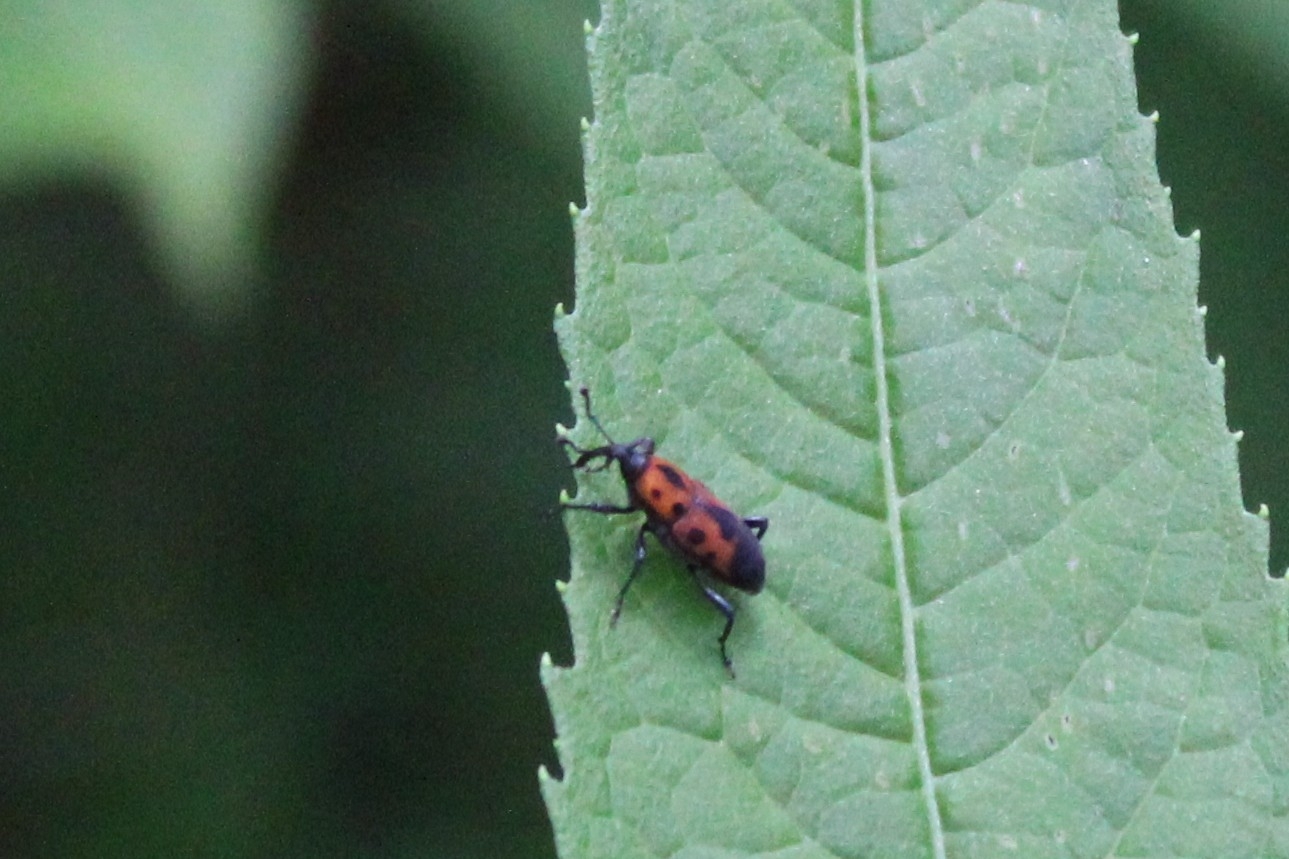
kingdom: Animalia
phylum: Arthropoda
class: Insecta
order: Coleoptera
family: Dryophthoridae
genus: Rhodobaenus
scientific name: Rhodobaenus quinquepunctatus
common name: Cocklebur weevil
